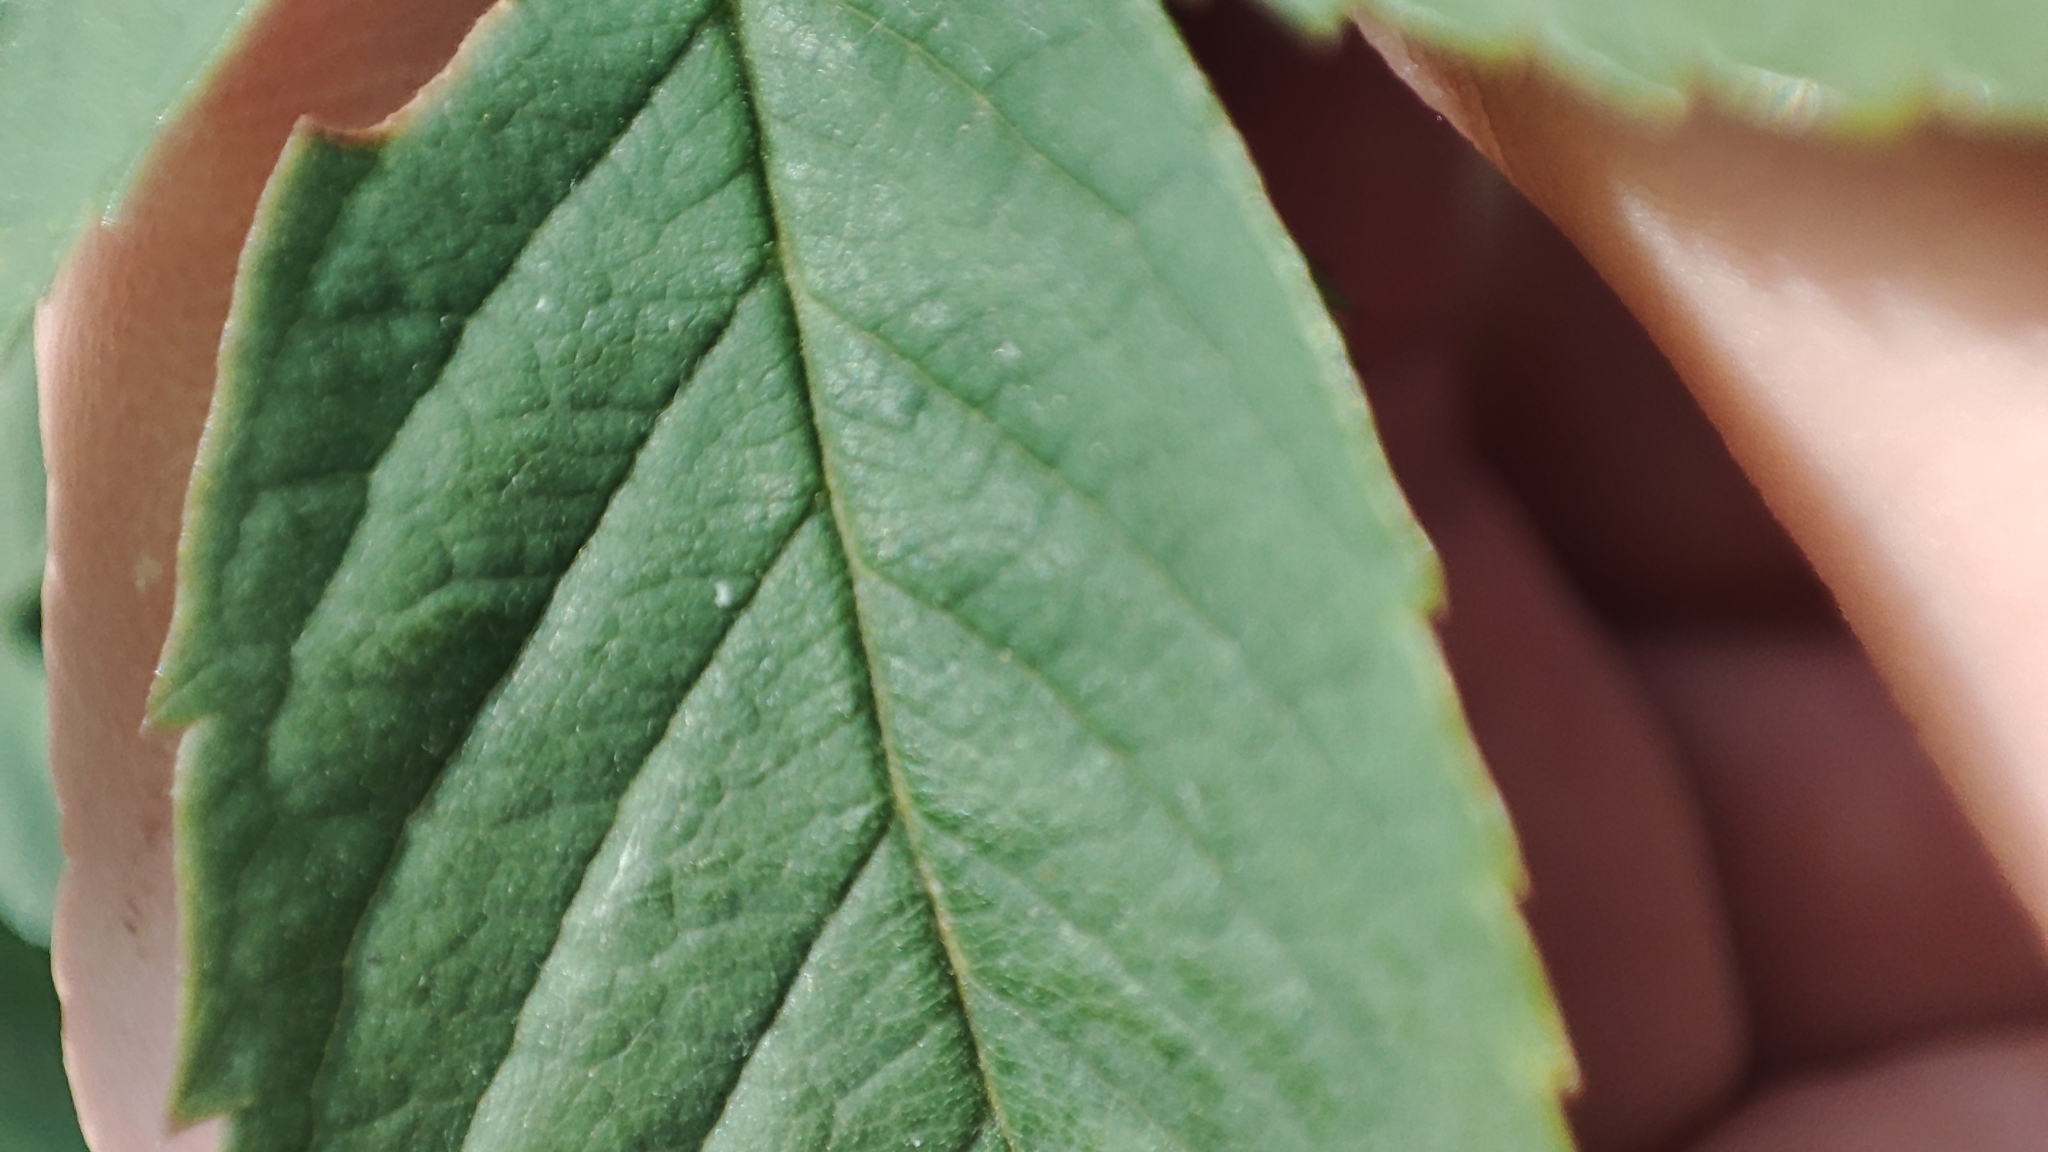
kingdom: Plantae
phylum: Tracheophyta
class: Magnoliopsida
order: Rosales
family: Rosaceae
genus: Rosa
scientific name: Rosa majalis
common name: Cinnamon rose
